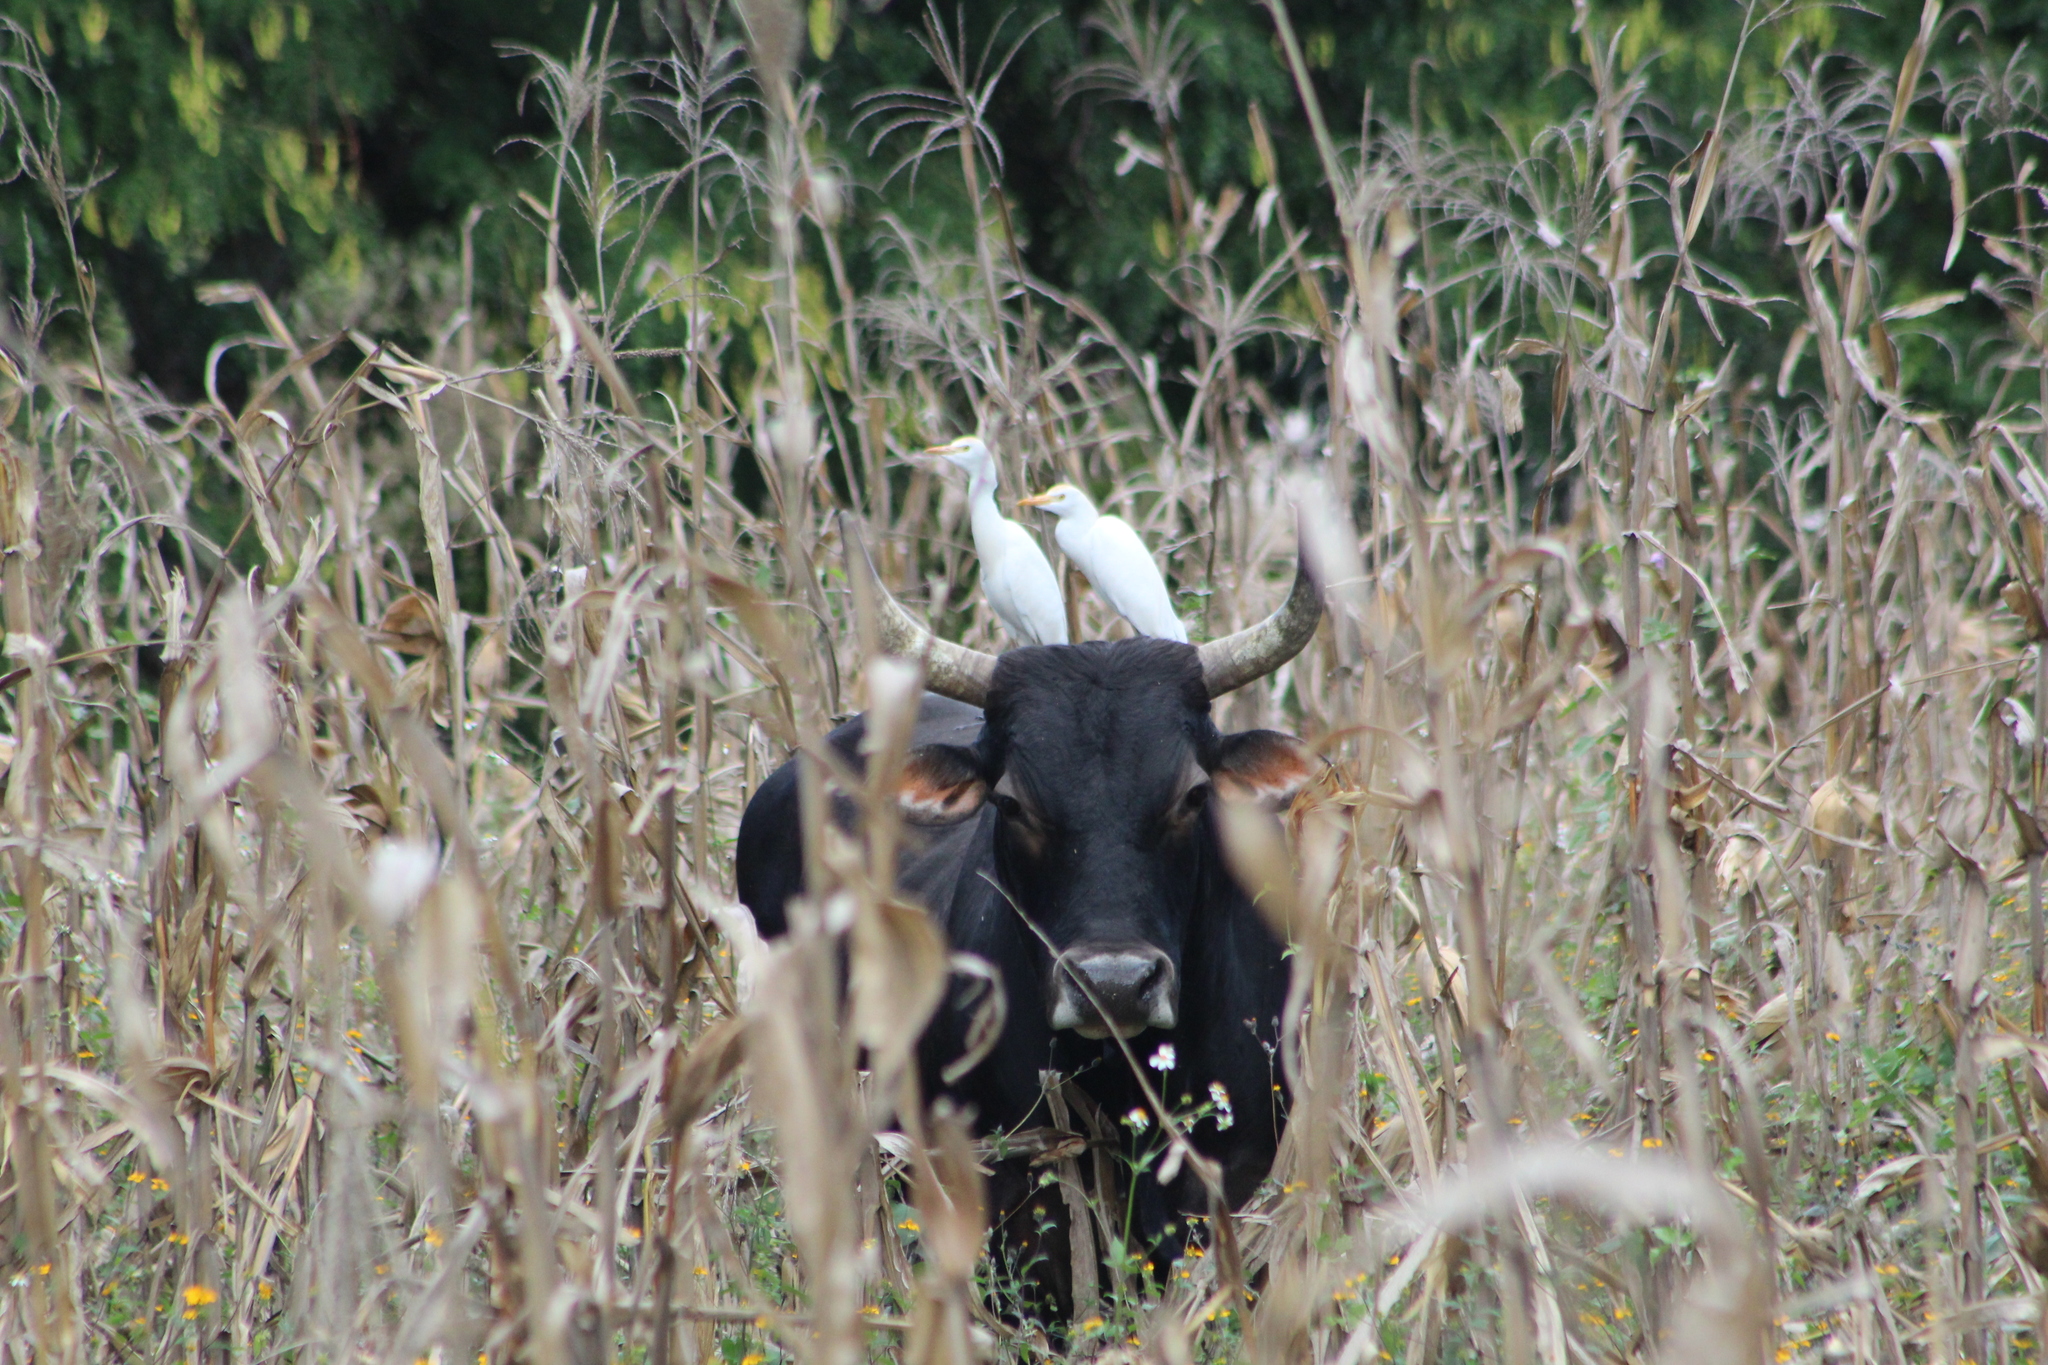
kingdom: Animalia
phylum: Chordata
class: Aves
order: Pelecaniformes
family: Ardeidae
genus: Bubulcus
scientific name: Bubulcus ibis
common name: Cattle egret
